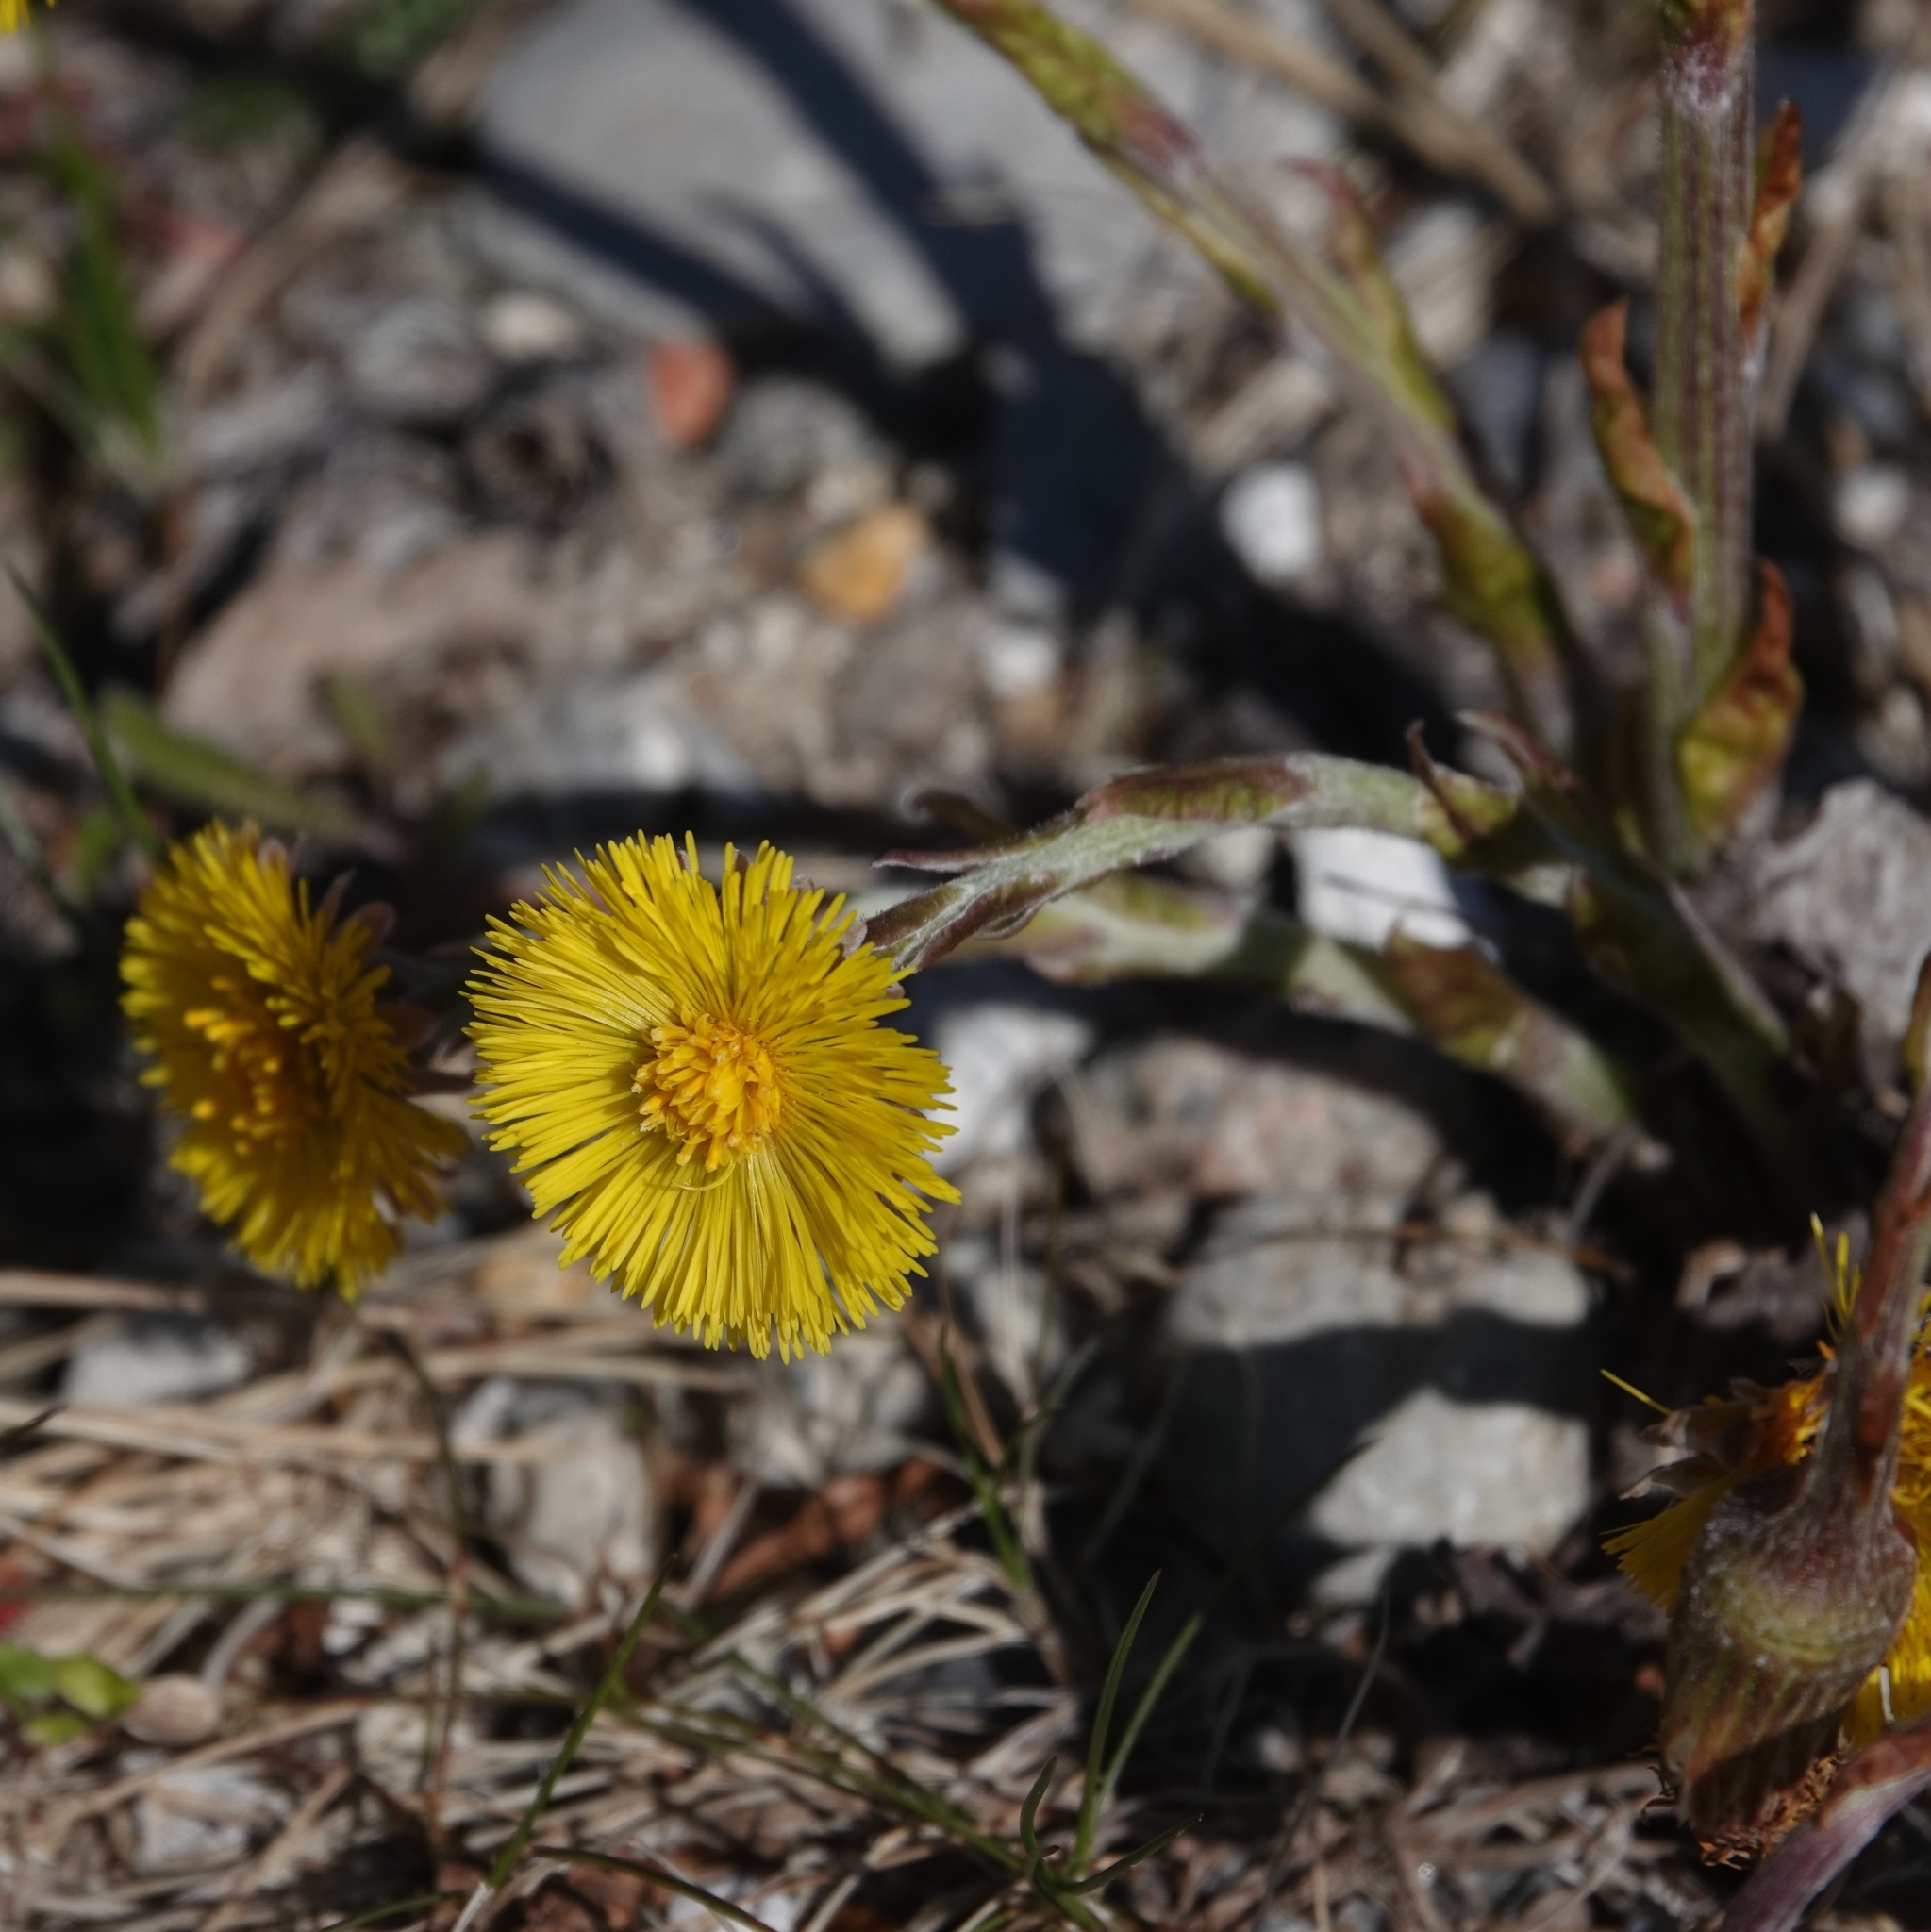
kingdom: Plantae
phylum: Tracheophyta
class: Magnoliopsida
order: Asterales
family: Asteraceae
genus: Tussilago
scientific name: Tussilago farfara
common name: Coltsfoot
